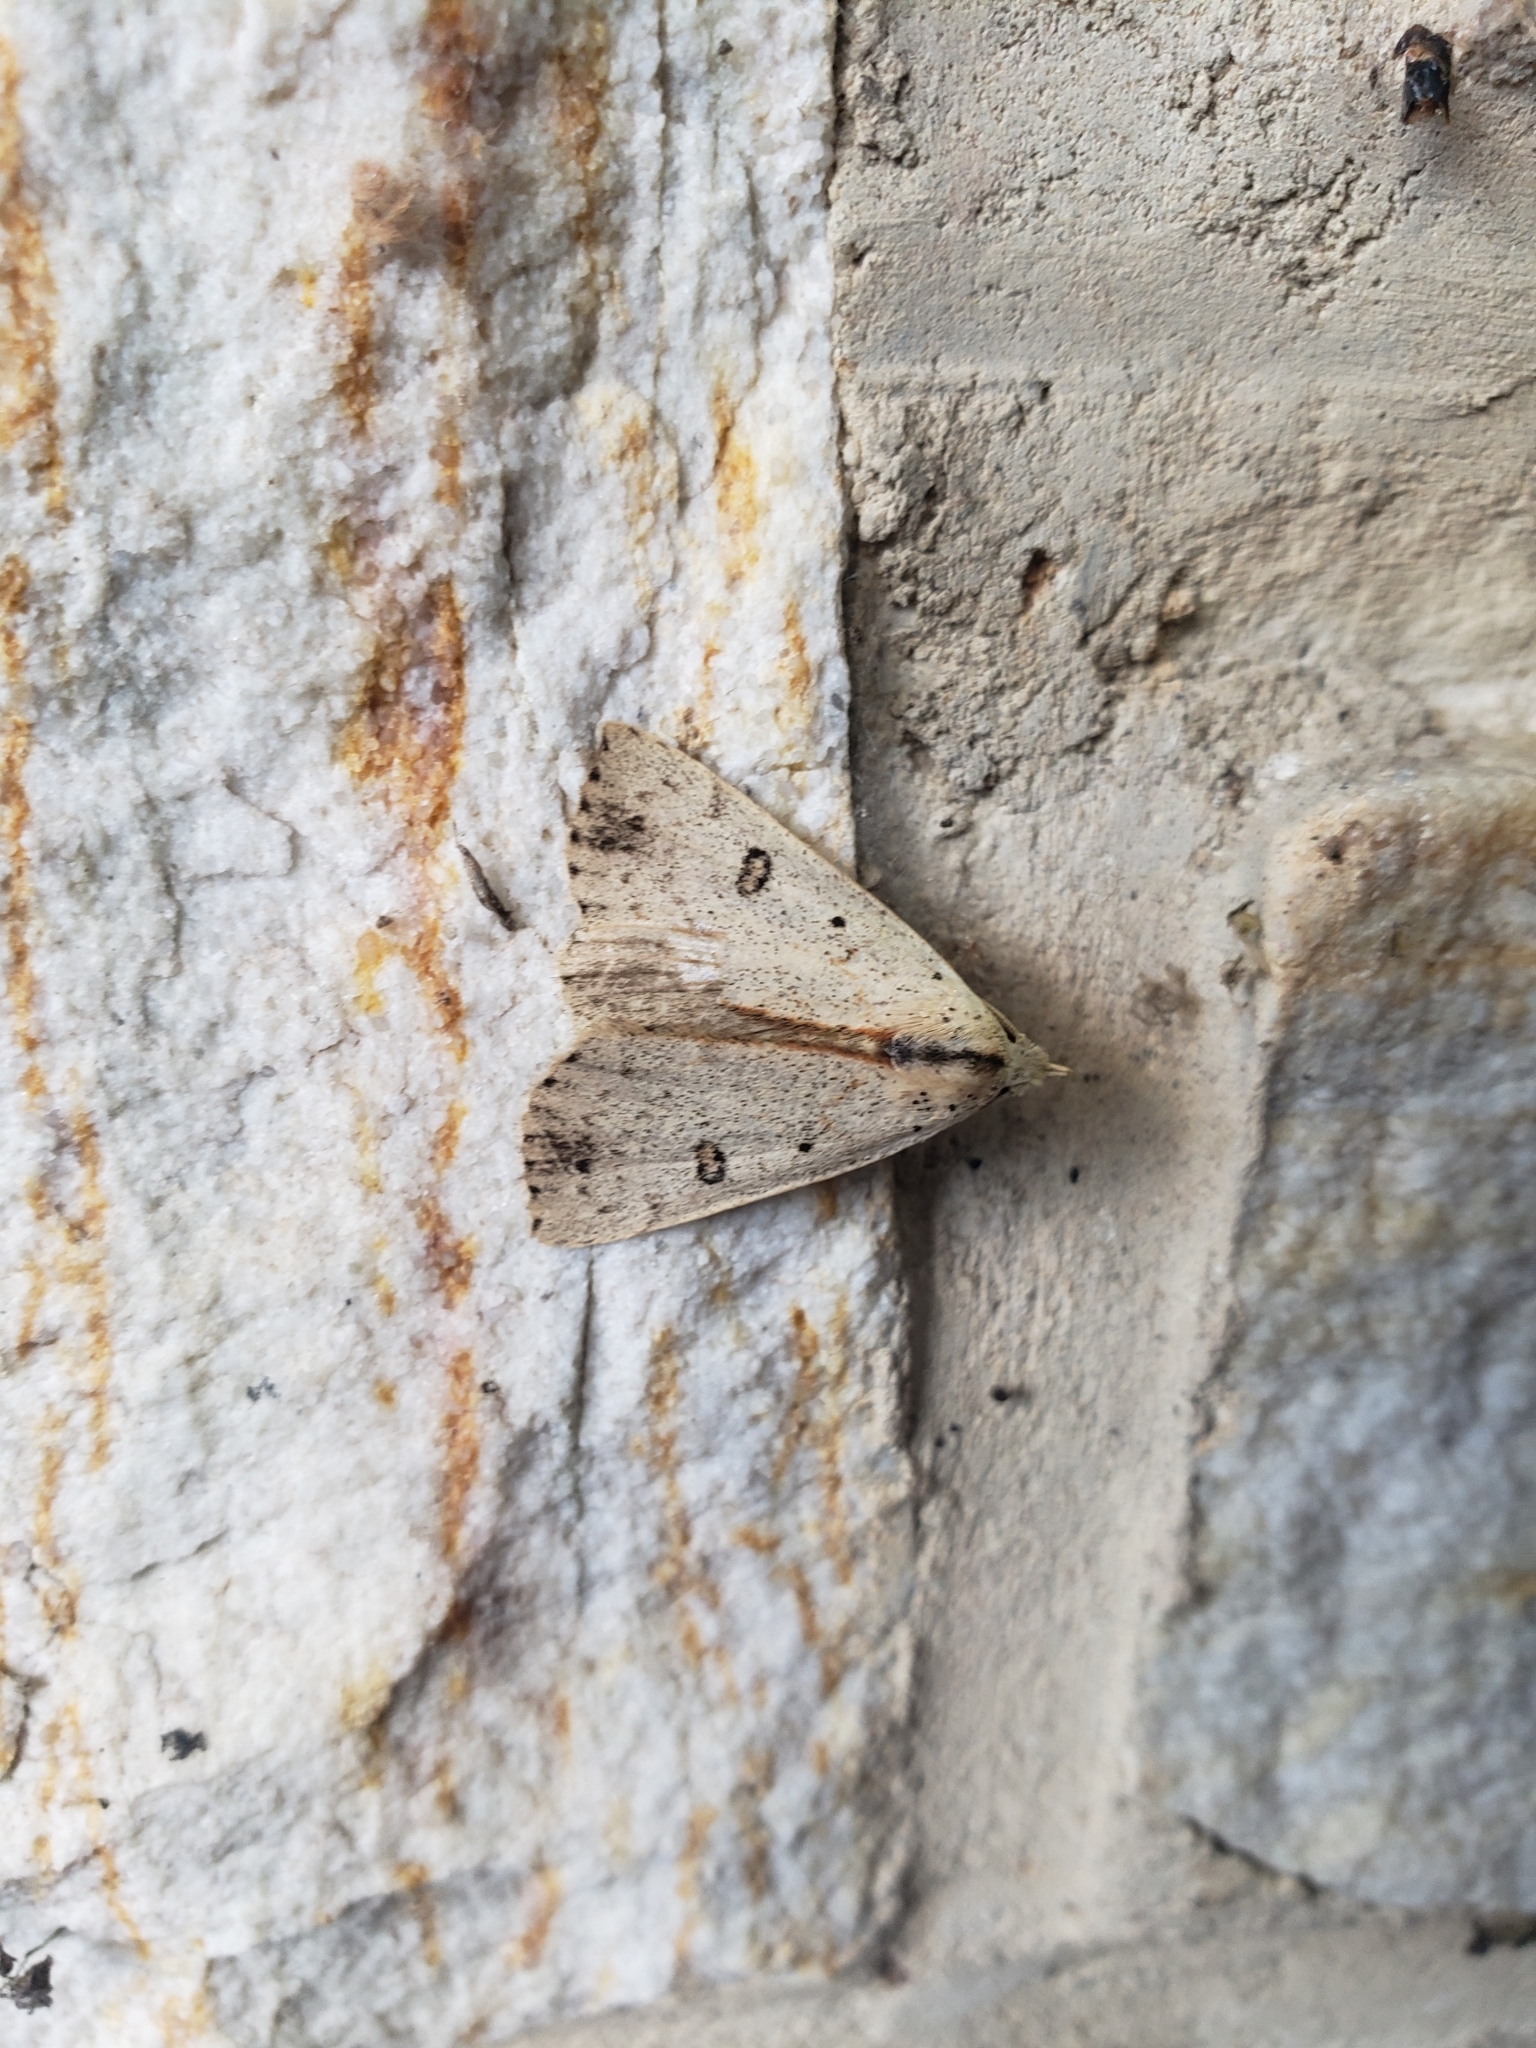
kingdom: Animalia
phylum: Arthropoda
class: Insecta
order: Lepidoptera
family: Erebidae
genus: Scolecocampa
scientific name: Scolecocampa liburna
